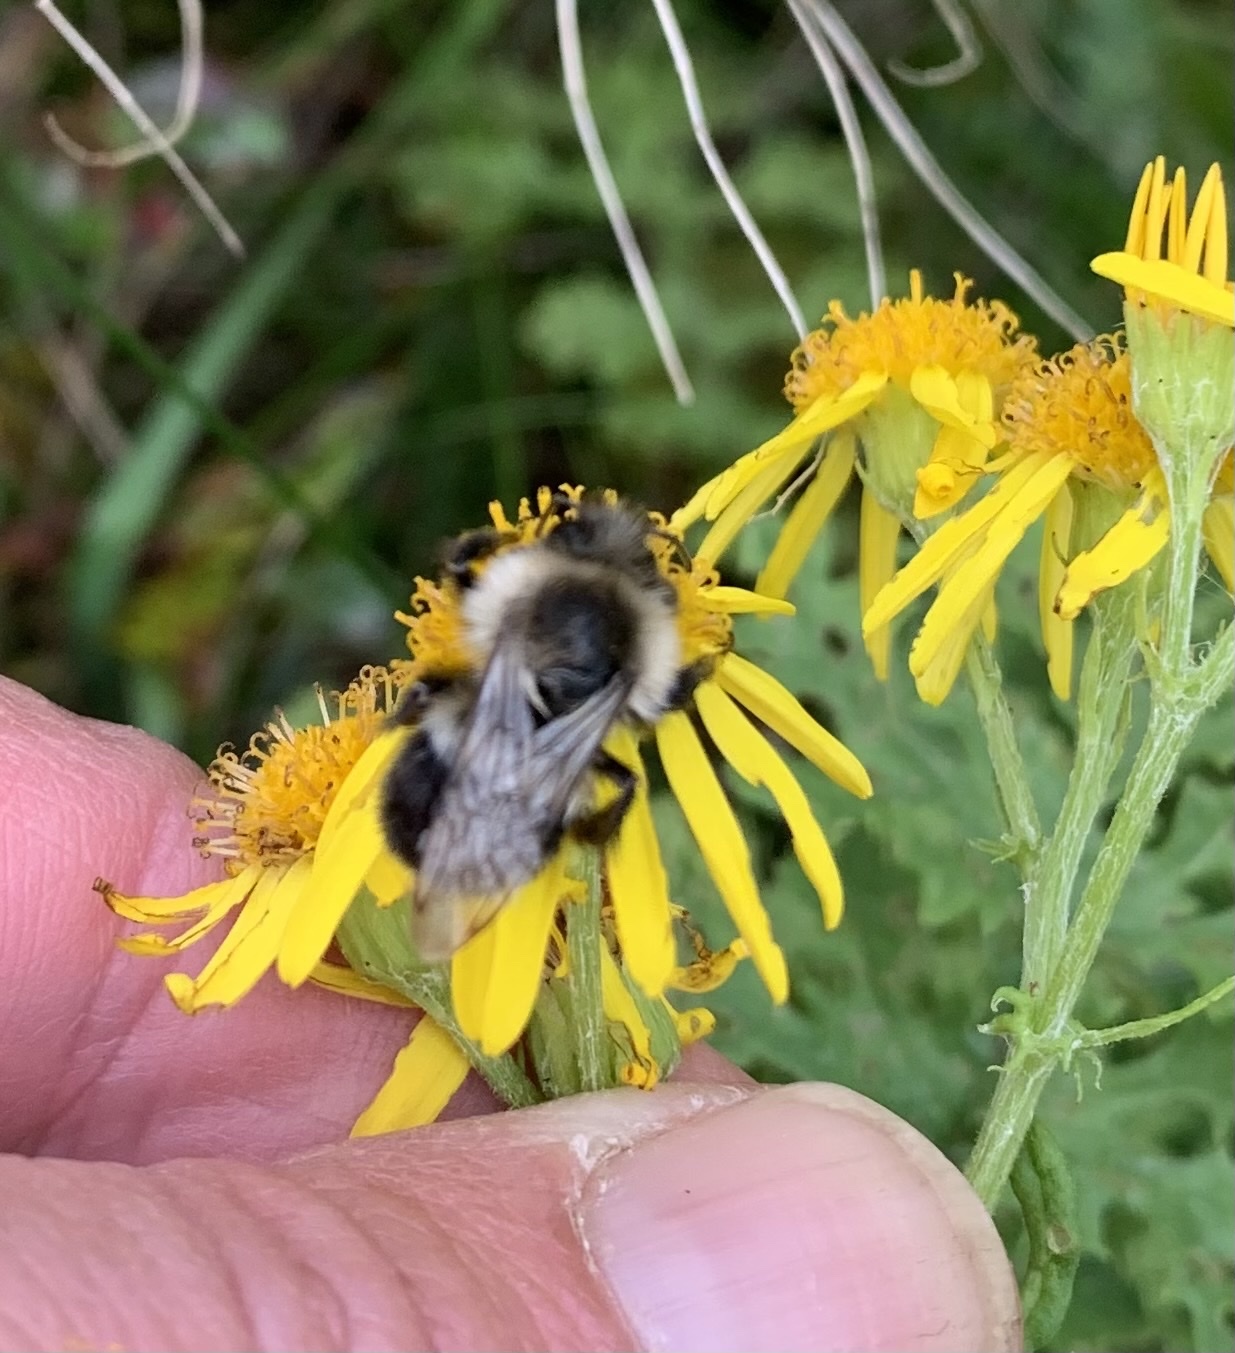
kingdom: Animalia
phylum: Arthropoda
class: Insecta
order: Hymenoptera
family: Apidae
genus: Bombus
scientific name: Bombus impatiens
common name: Common eastern bumble bee
